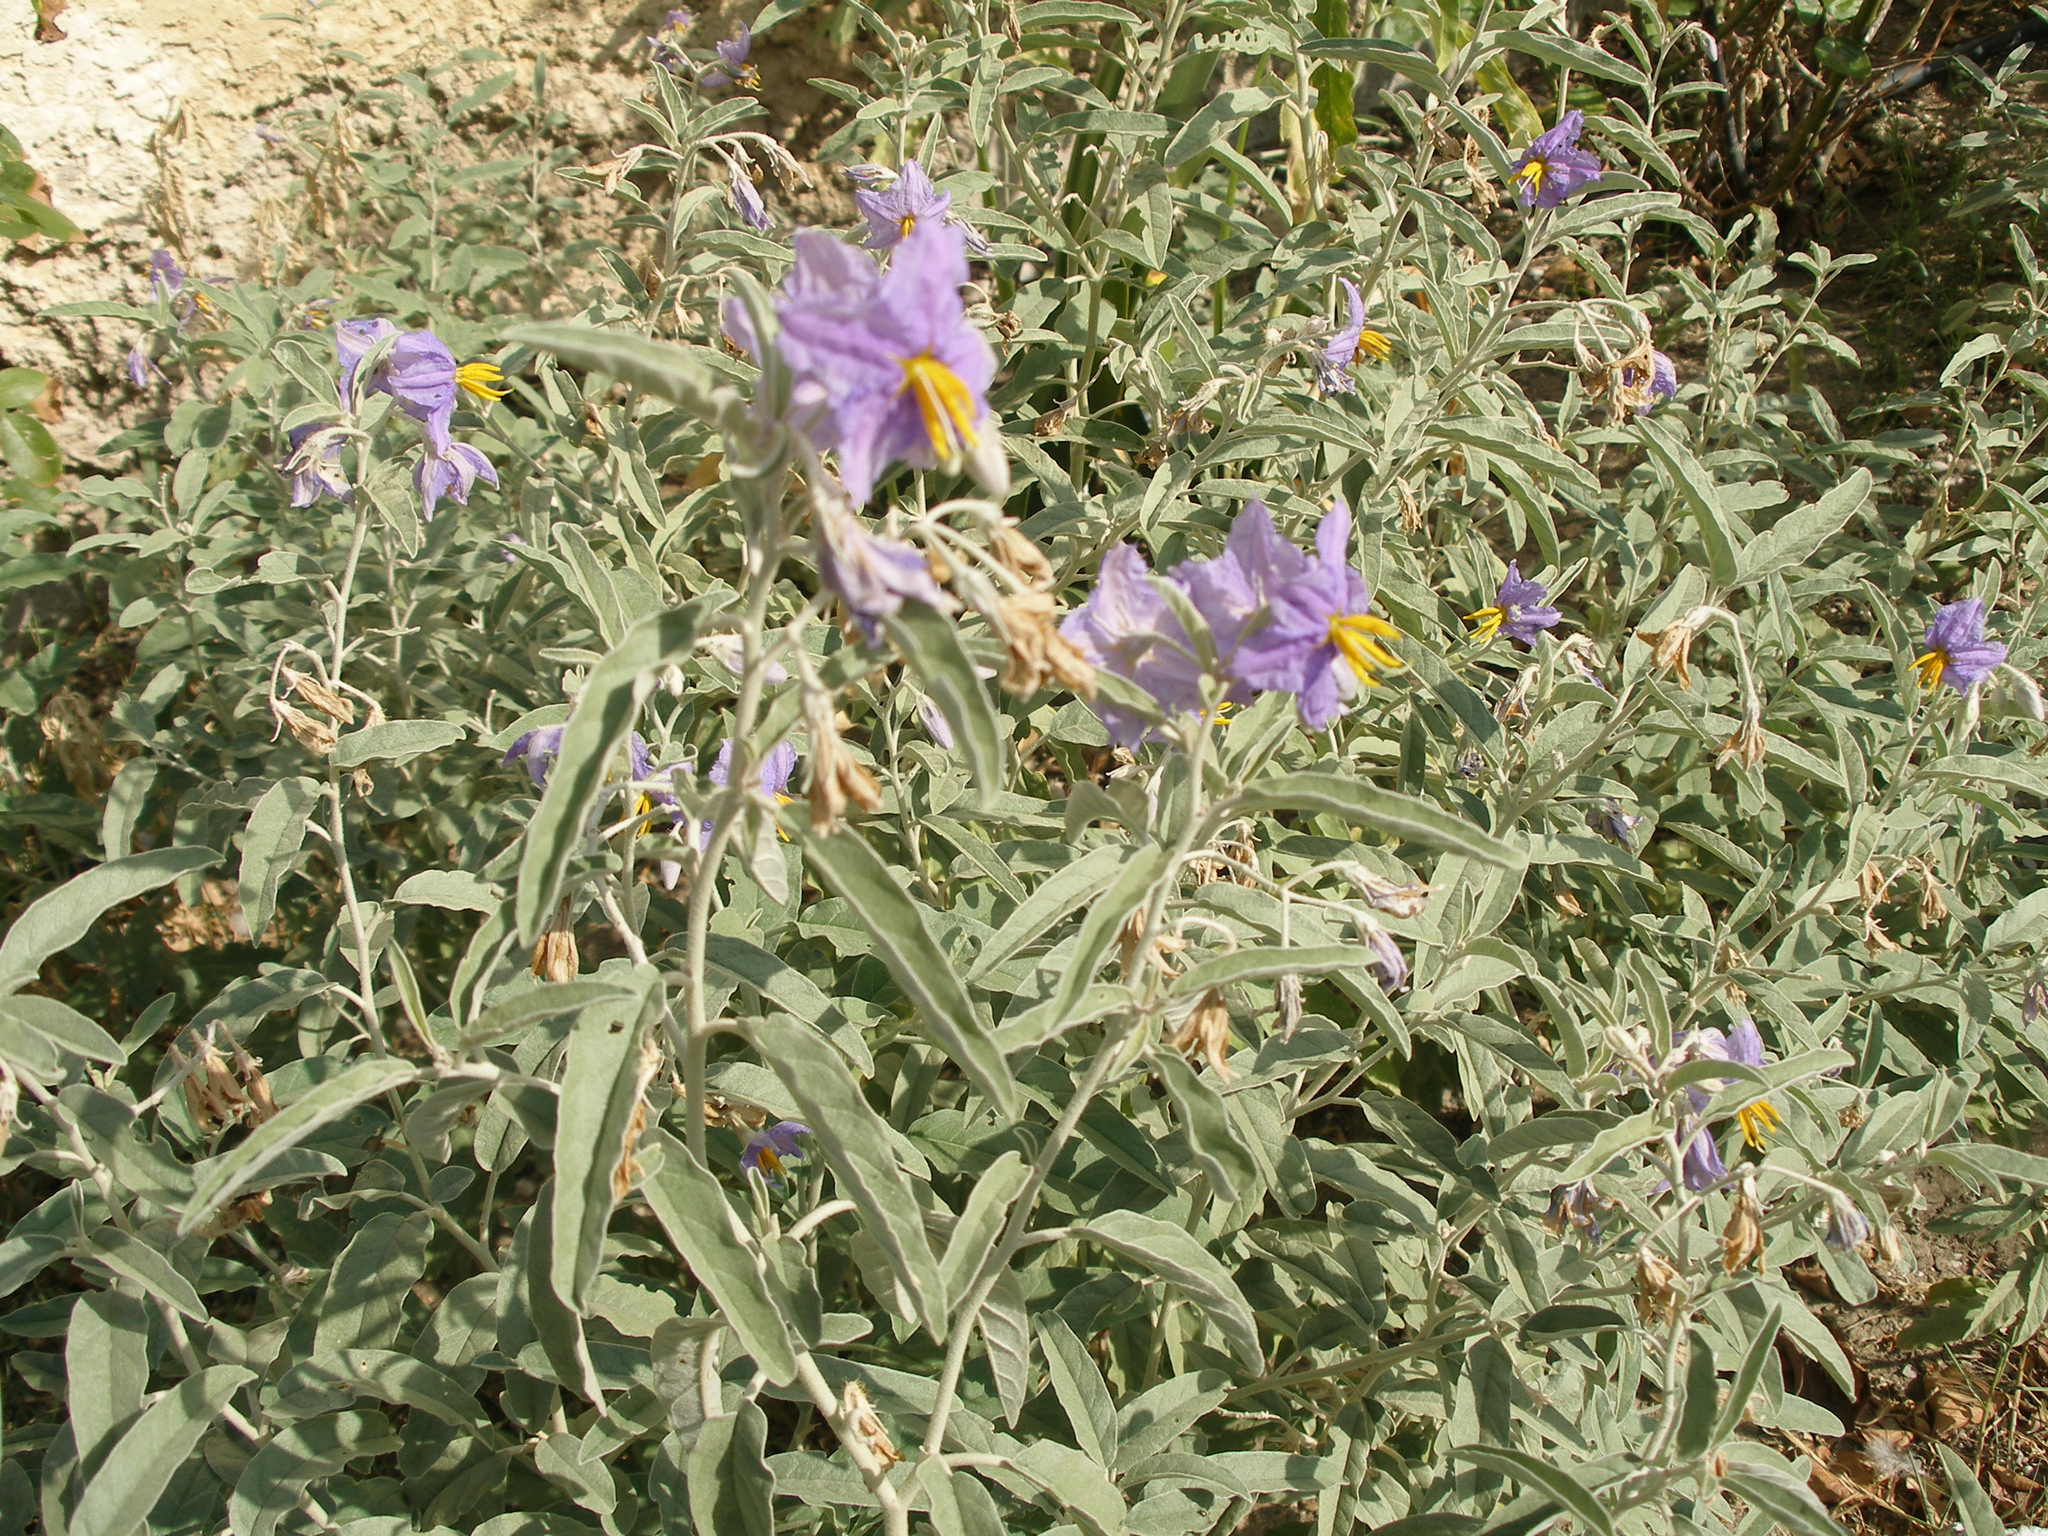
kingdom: Plantae
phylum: Tracheophyta
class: Magnoliopsida
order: Solanales
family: Solanaceae
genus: Solanum
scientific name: Solanum elaeagnifolium
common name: Silverleaf nightshade
